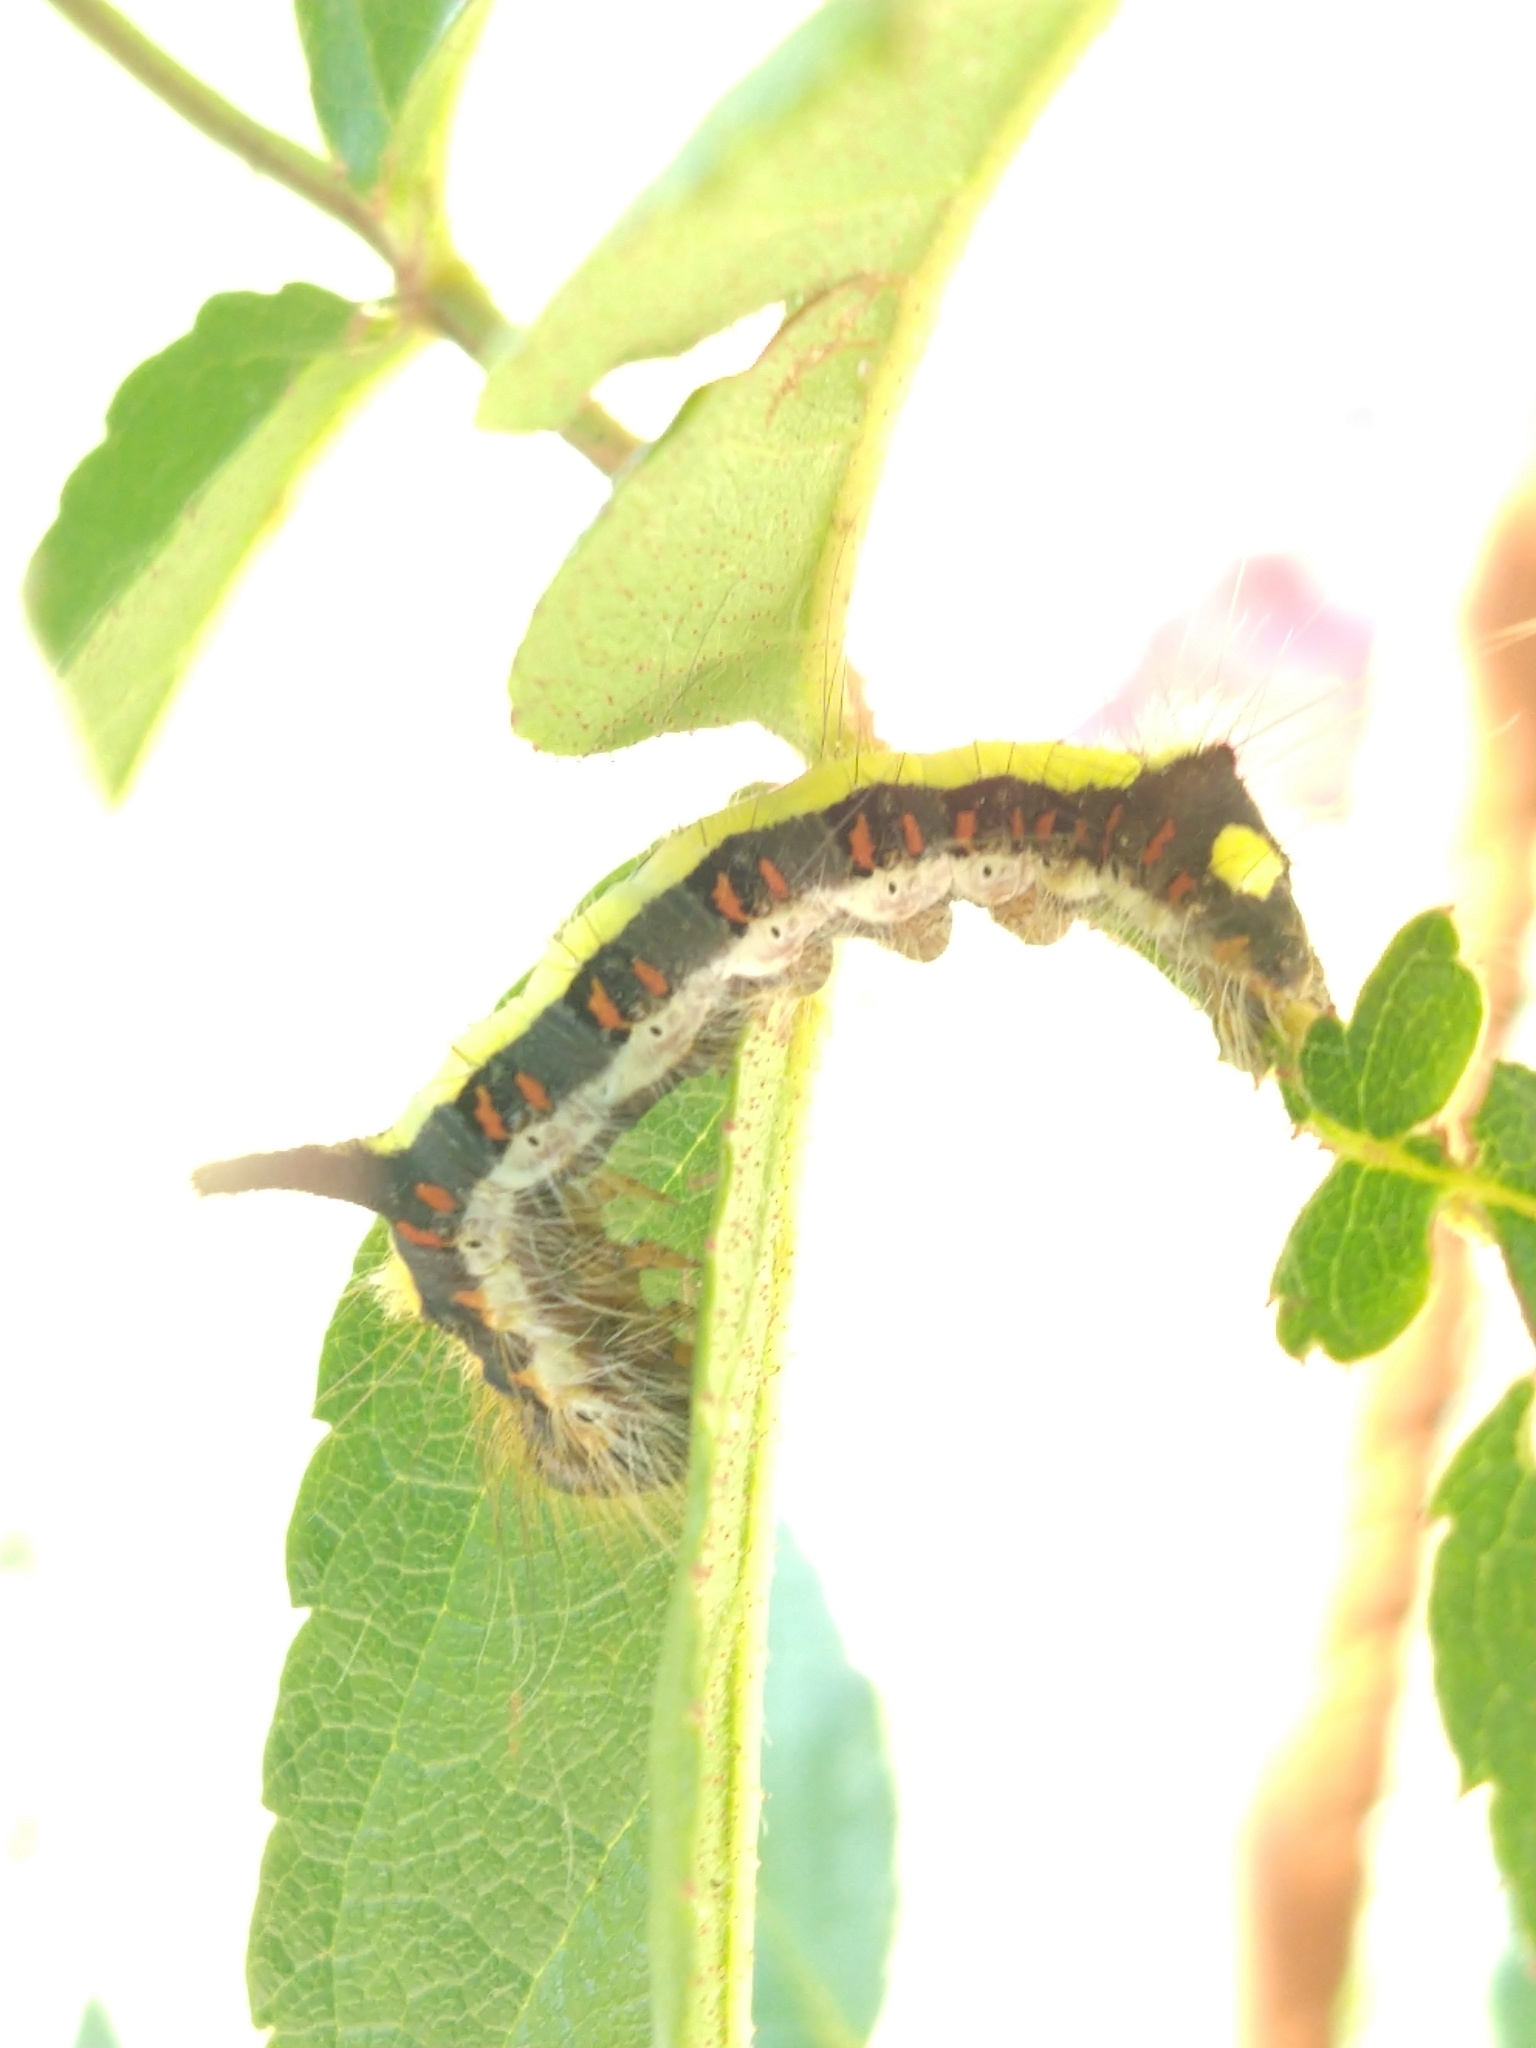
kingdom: Animalia
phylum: Arthropoda
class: Insecta
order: Lepidoptera
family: Noctuidae
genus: Acronicta
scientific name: Acronicta psi
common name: Grey dagger
